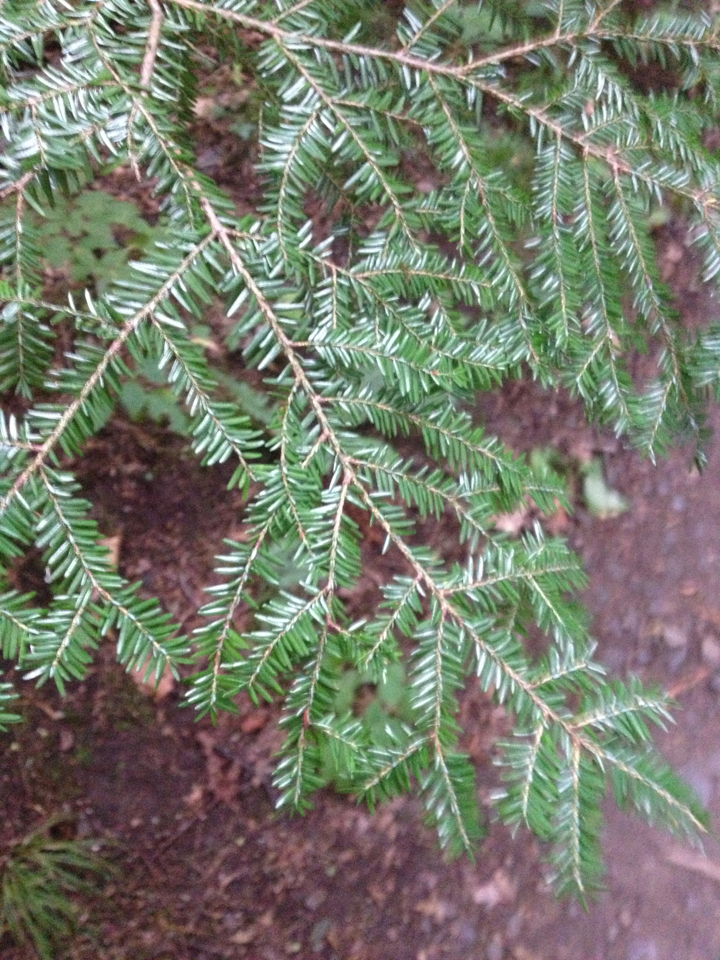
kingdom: Plantae
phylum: Tracheophyta
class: Pinopsida
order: Pinales
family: Pinaceae
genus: Tsuga
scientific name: Tsuga canadensis
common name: Eastern hemlock
